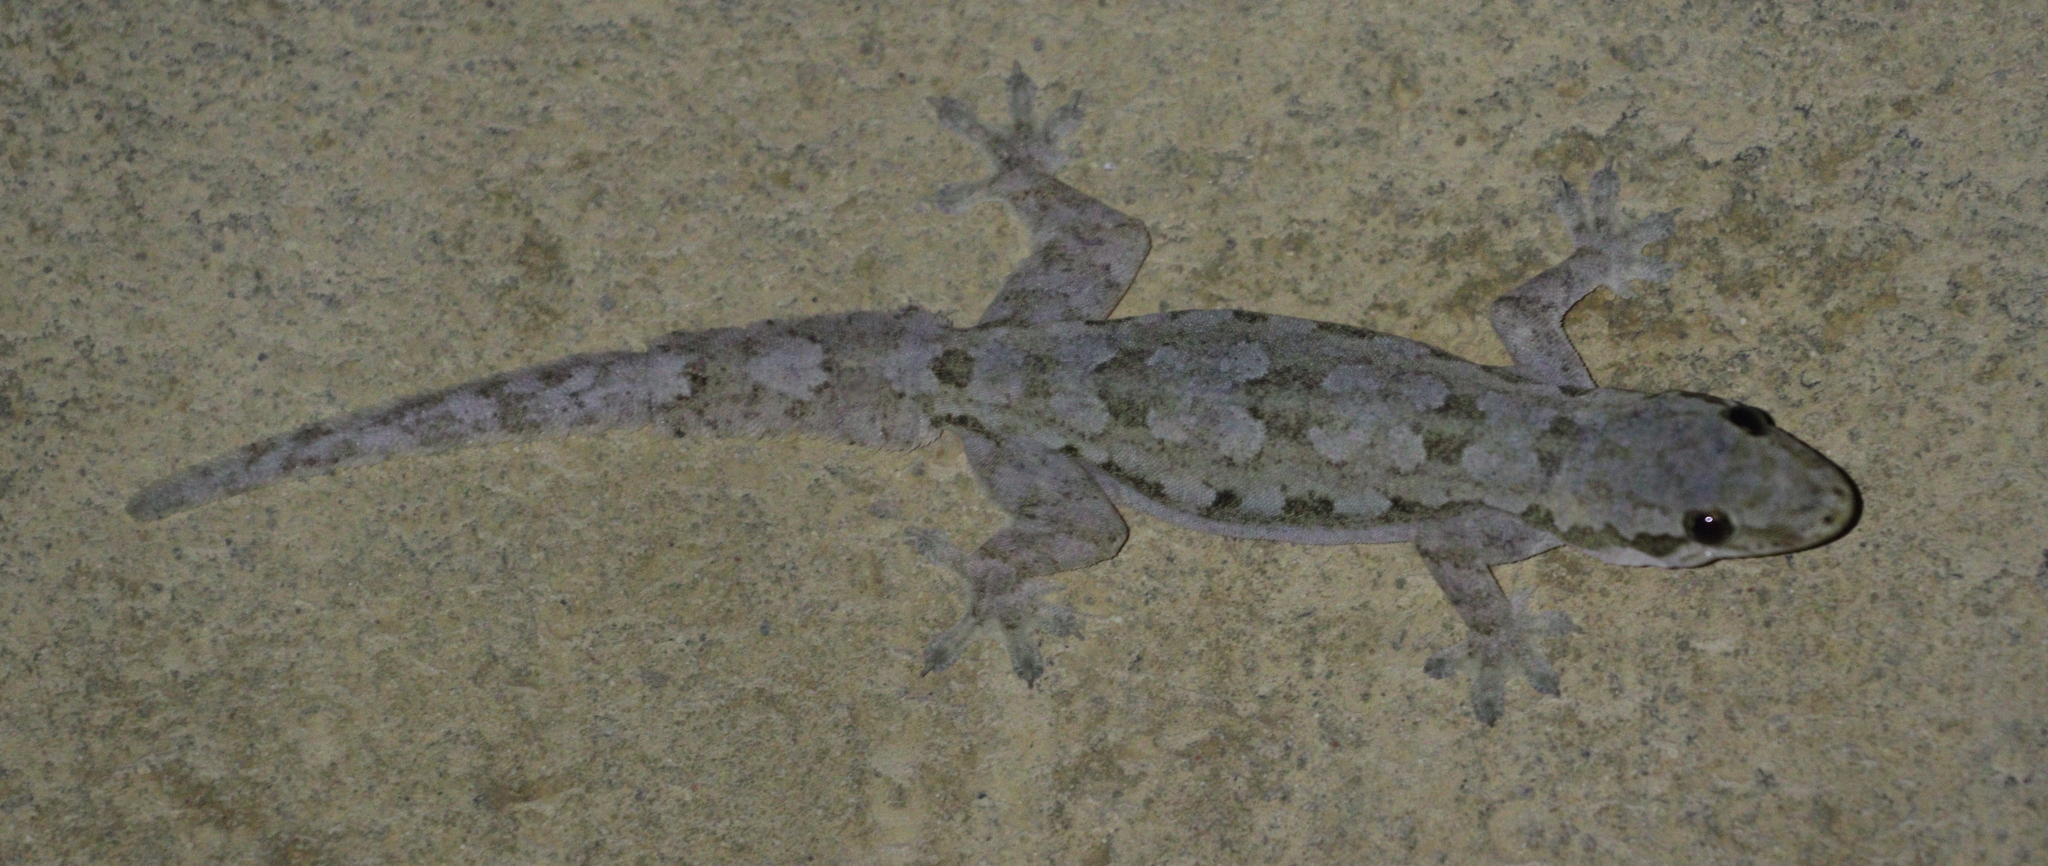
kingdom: Animalia
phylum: Chordata
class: Squamata
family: Gekkonidae
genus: Hemidactylus
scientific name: Hemidactylus platyurus
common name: Flat-tailed house gecko
